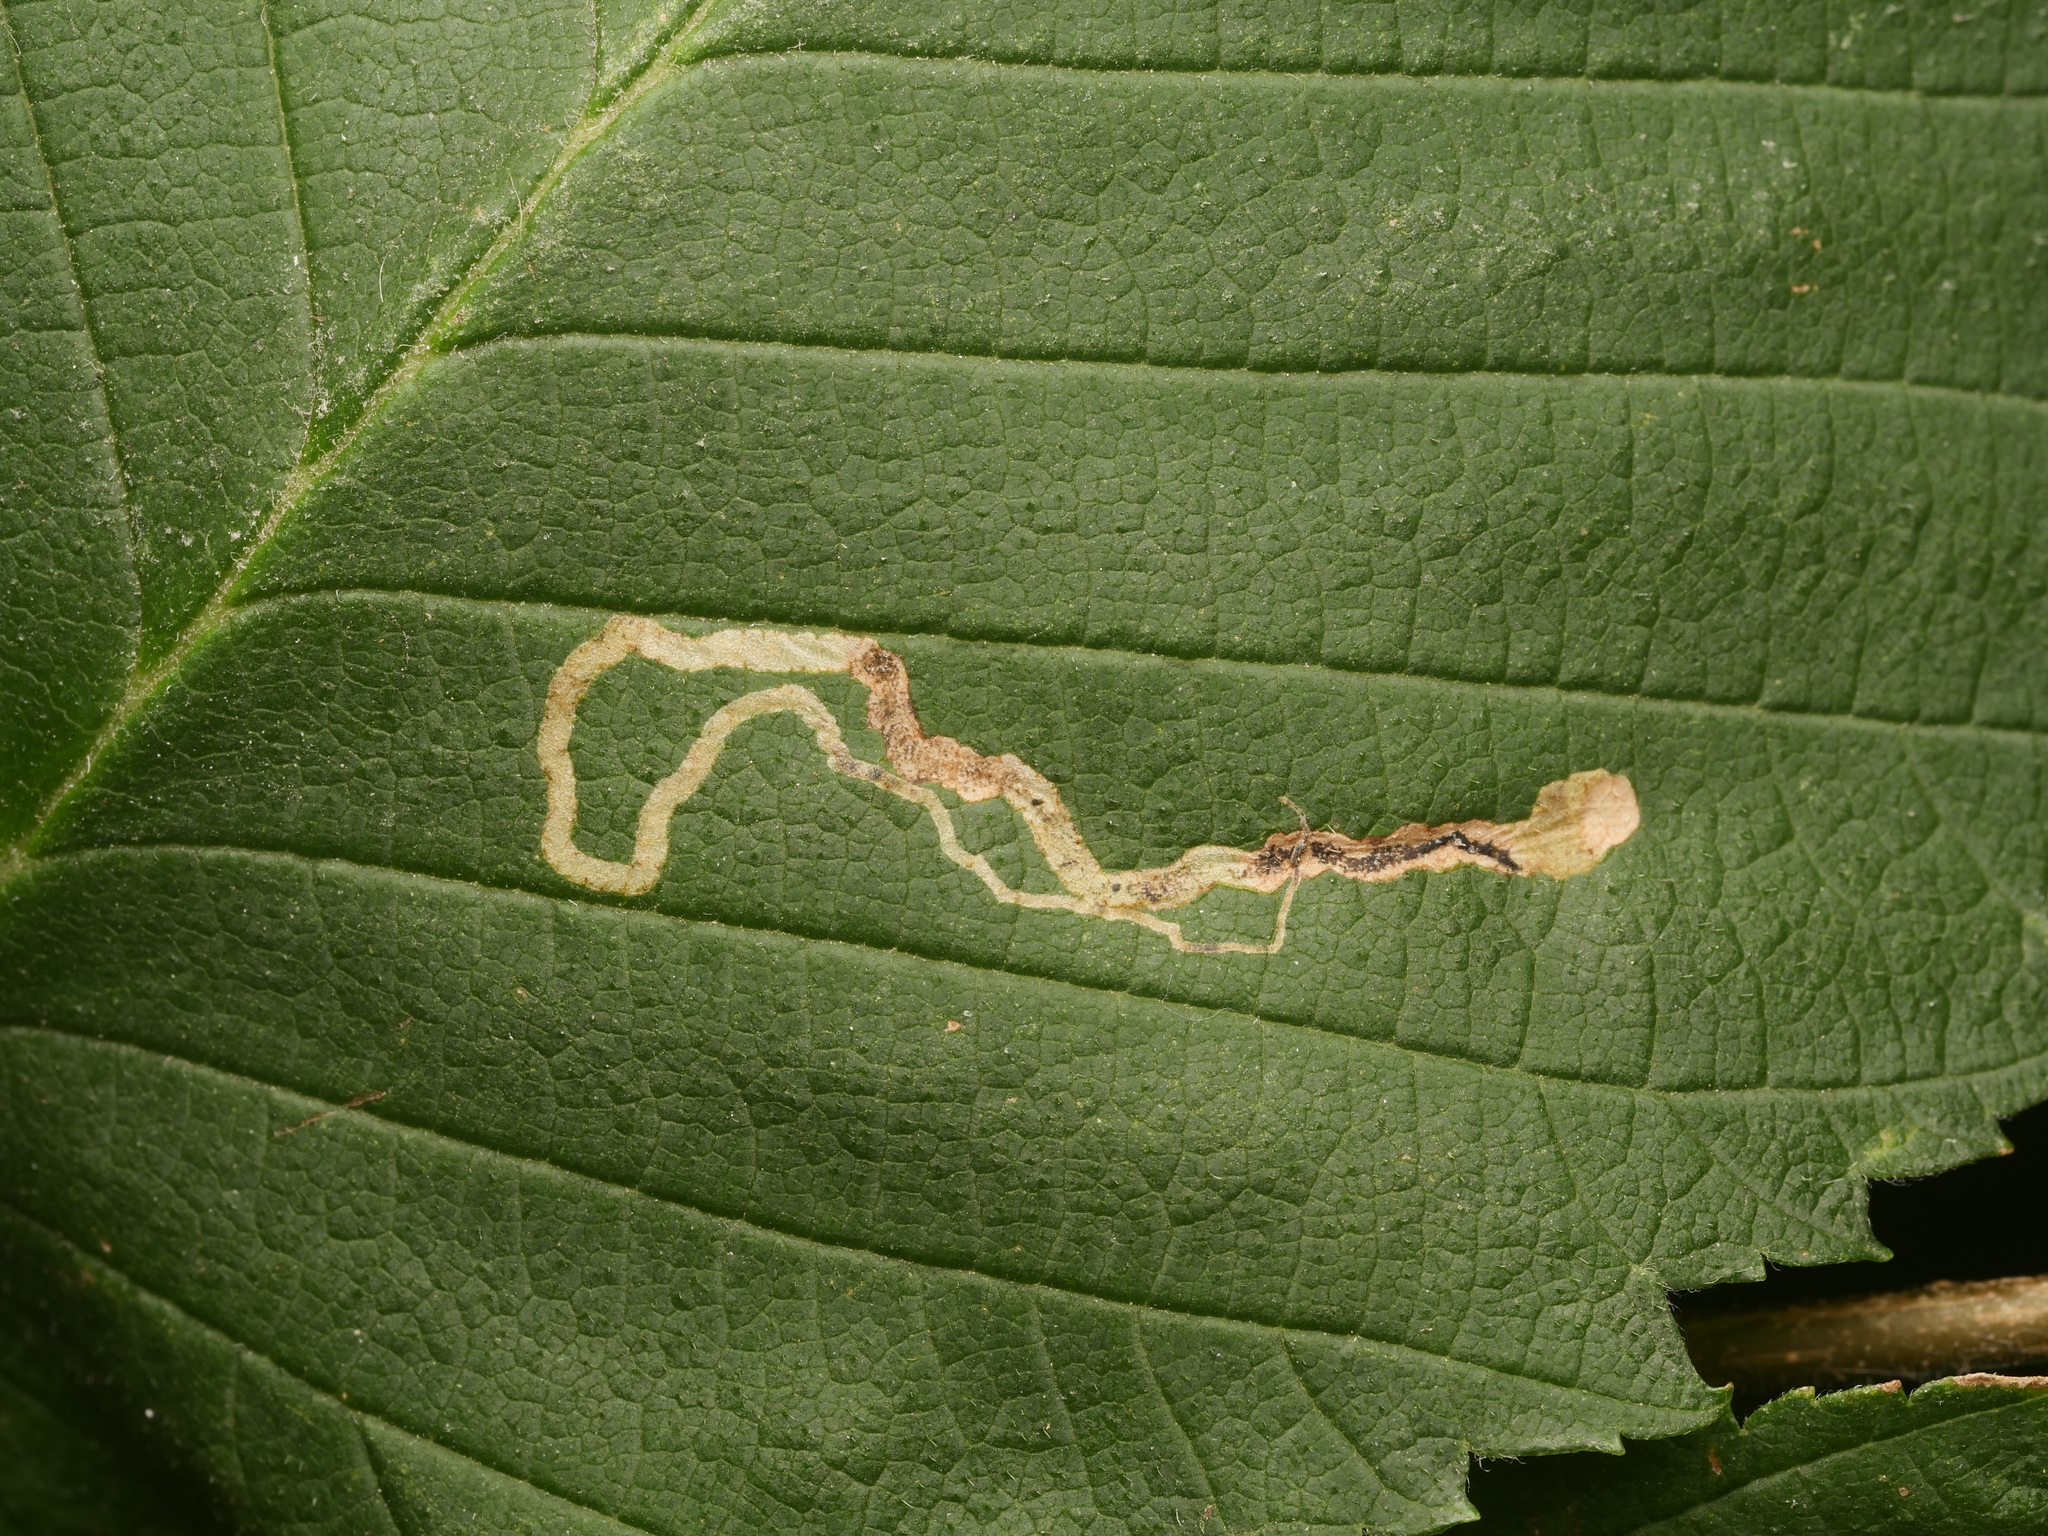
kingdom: Animalia
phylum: Arthropoda
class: Insecta
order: Lepidoptera
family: Nepticulidae
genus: Stigmella
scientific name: Stigmella lemniscella
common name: Red elm pigmy
